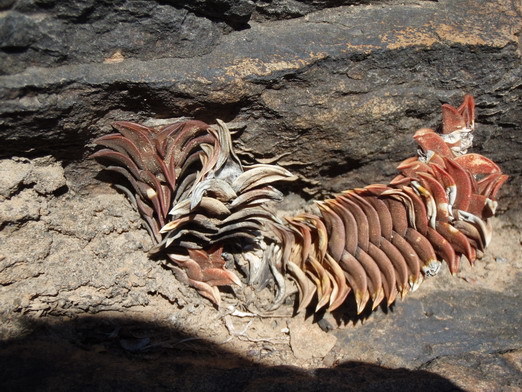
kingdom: Plantae
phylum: Tracheophyta
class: Liliopsida
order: Asparagales
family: Asphodelaceae
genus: Haworthiopsis
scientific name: Haworthiopsis viscosa
